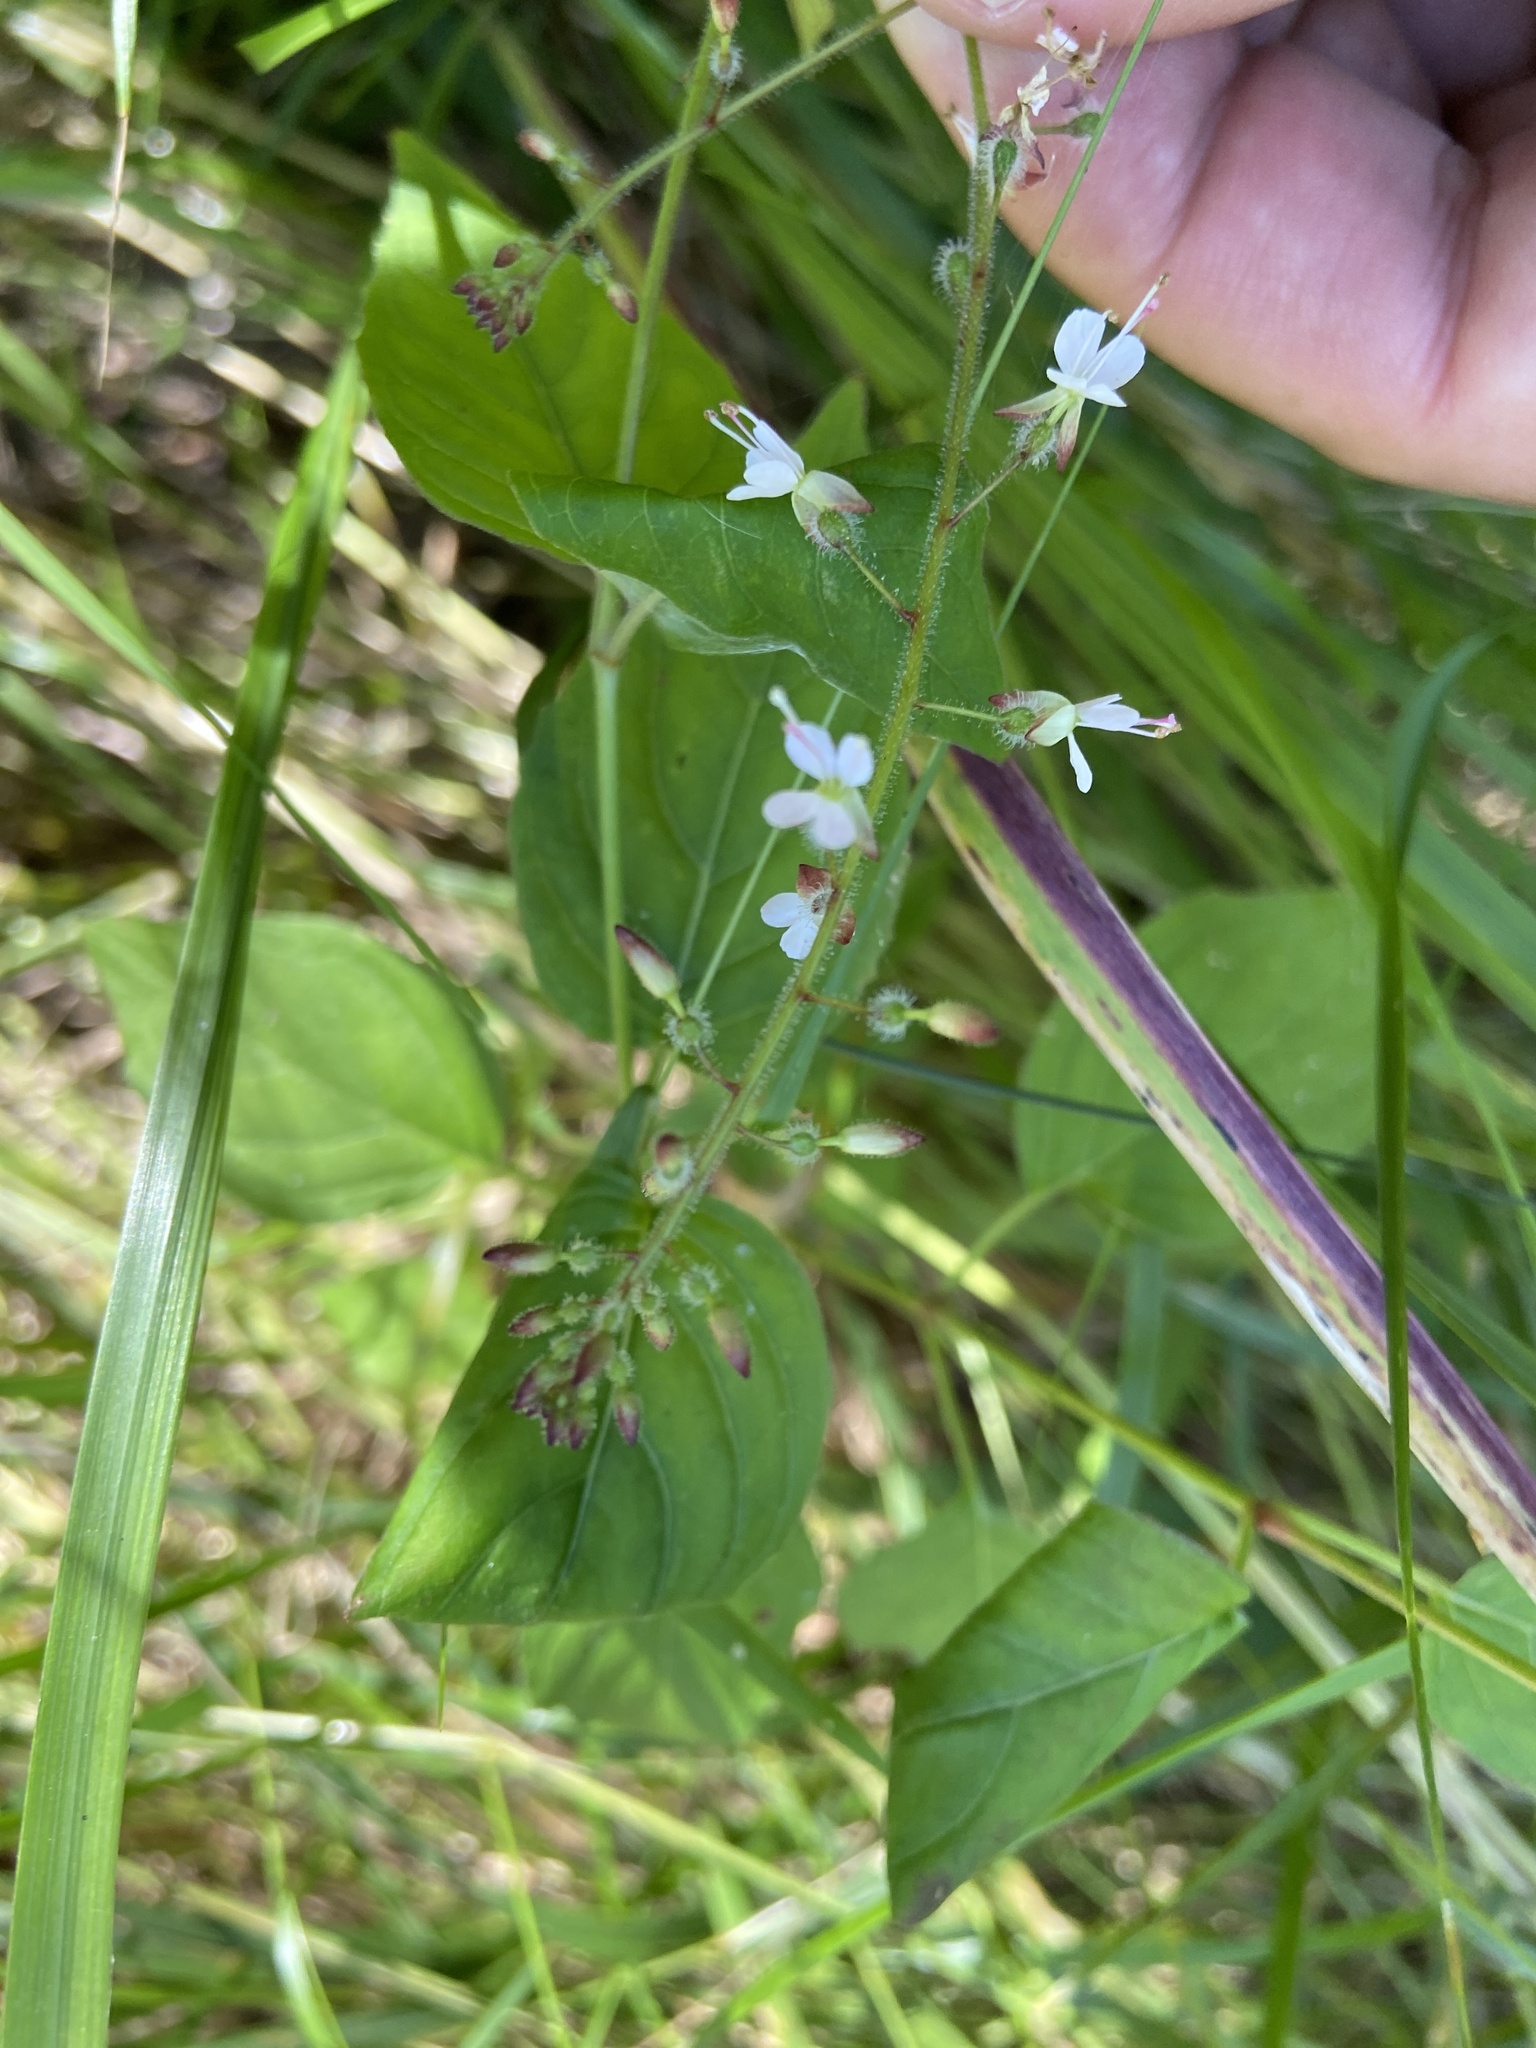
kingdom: Plantae
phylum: Tracheophyta
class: Magnoliopsida
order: Myrtales
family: Onagraceae
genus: Circaea
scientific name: Circaea lutetiana
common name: Enchanter's-nightshade
